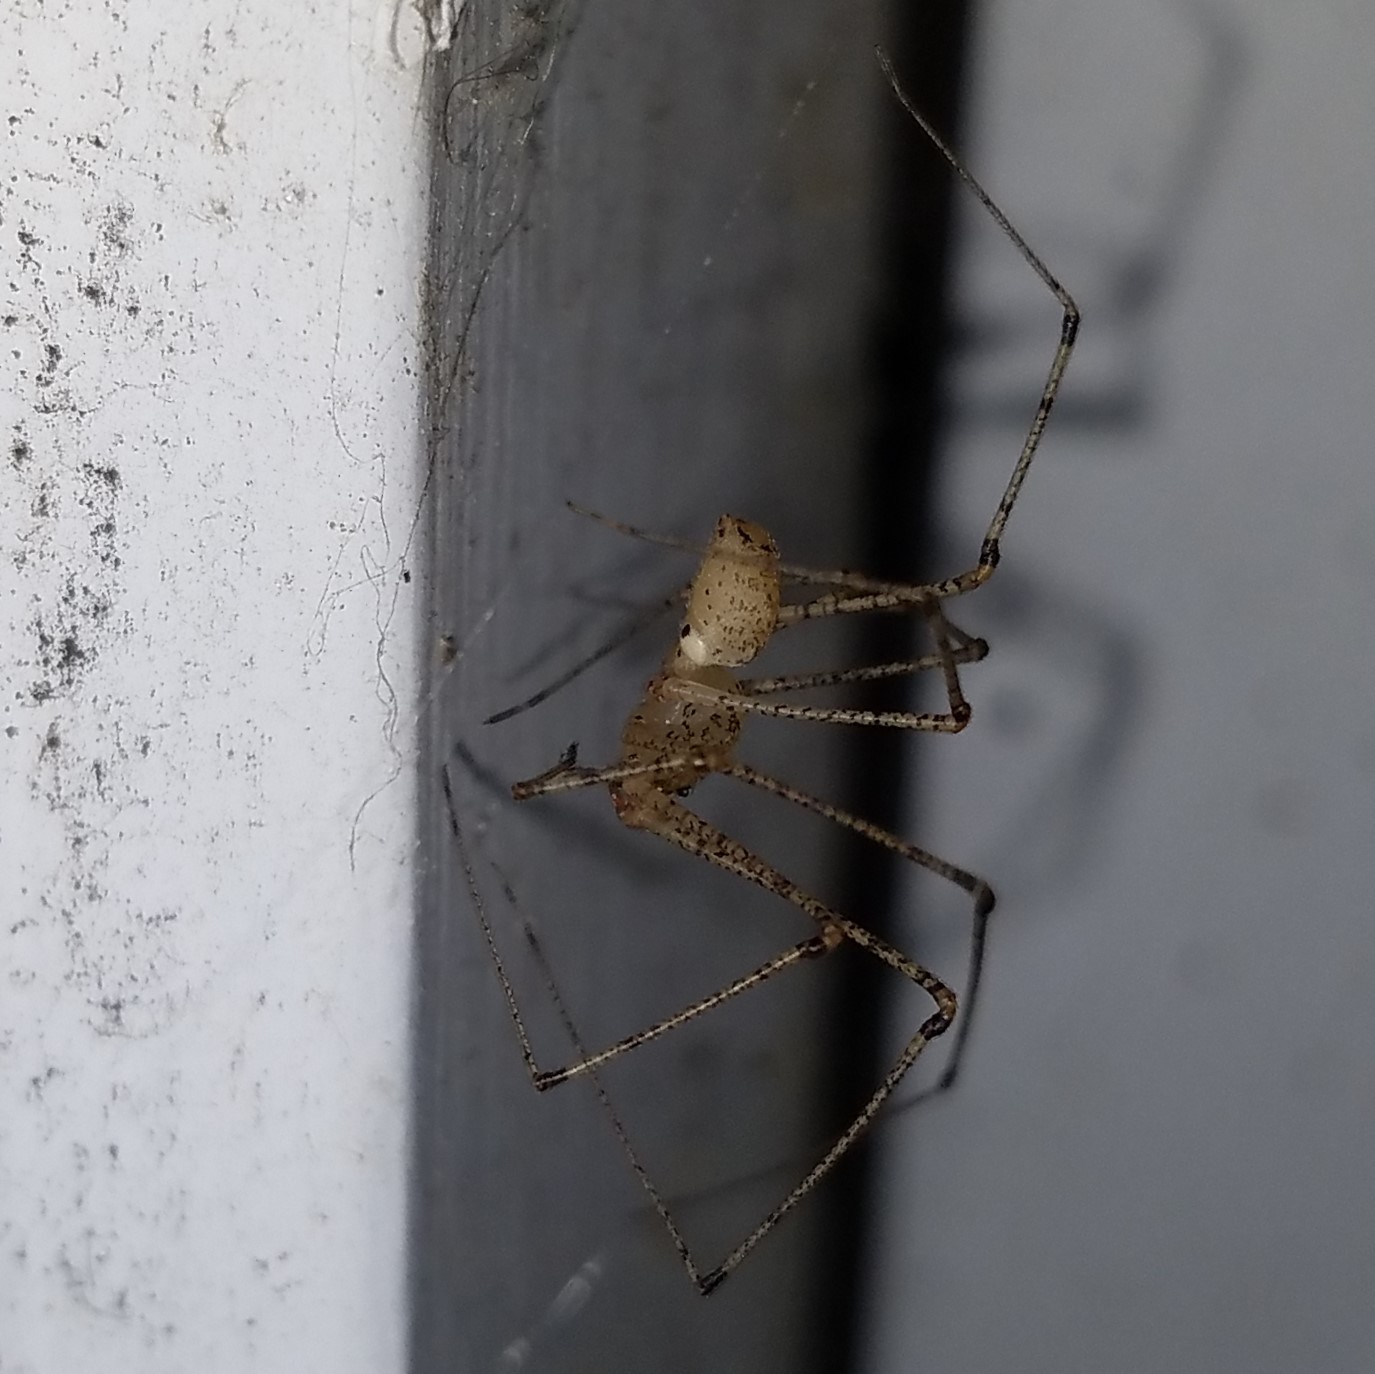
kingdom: Animalia
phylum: Arthropoda
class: Arachnida
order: Araneae
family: Scytodidae
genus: Scytodes
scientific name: Scytodes atlacoya
